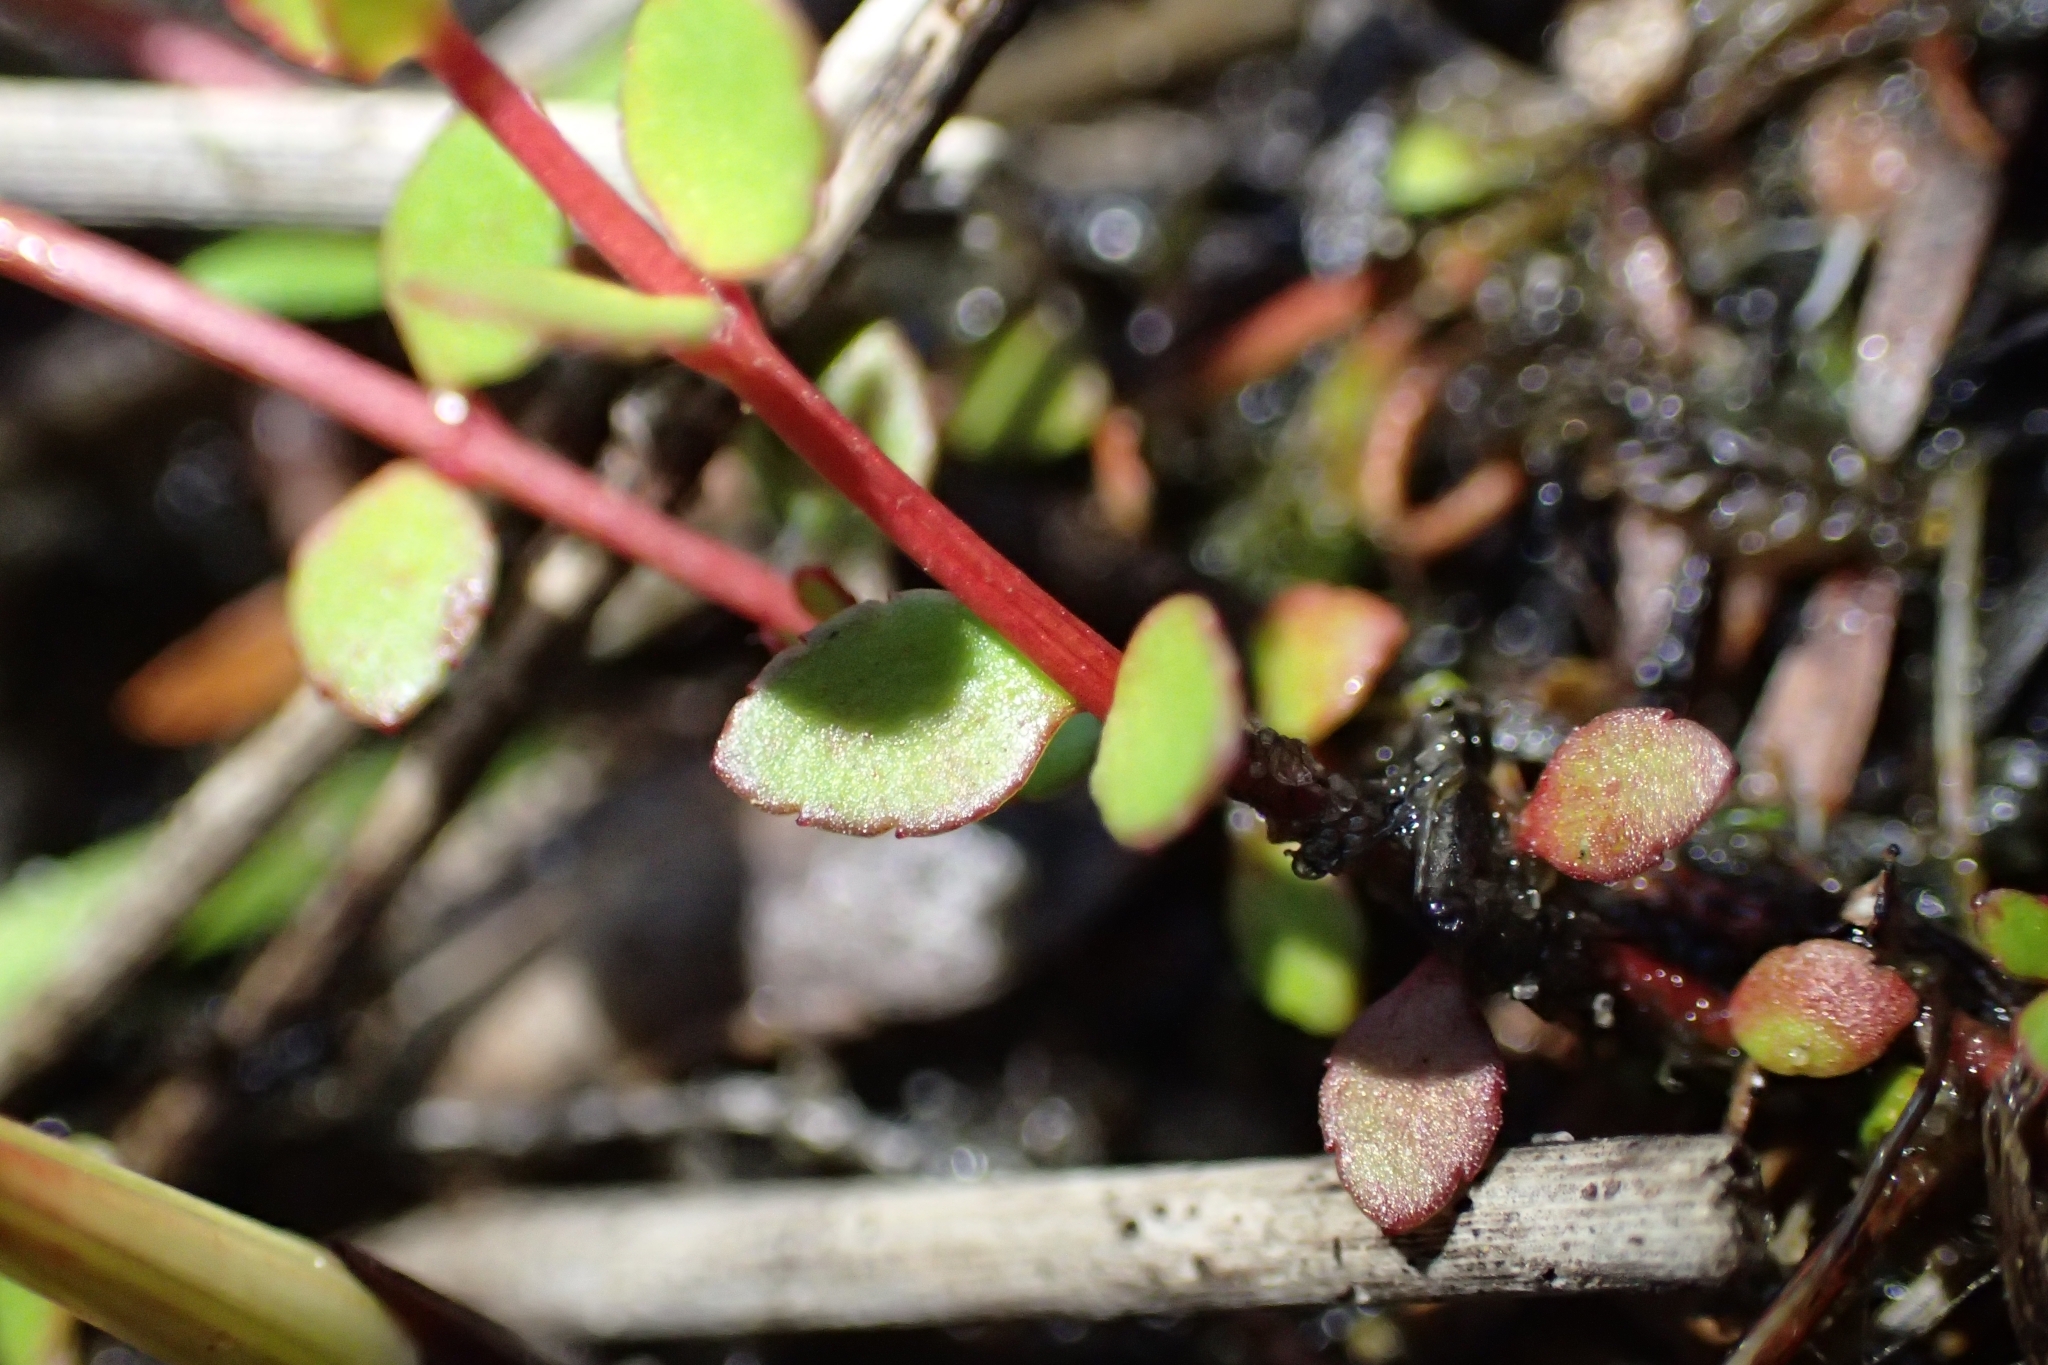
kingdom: Plantae
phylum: Tracheophyta
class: Magnoliopsida
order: Saxifragales
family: Haloragaceae
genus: Gonocarpus
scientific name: Gonocarpus micranthus
